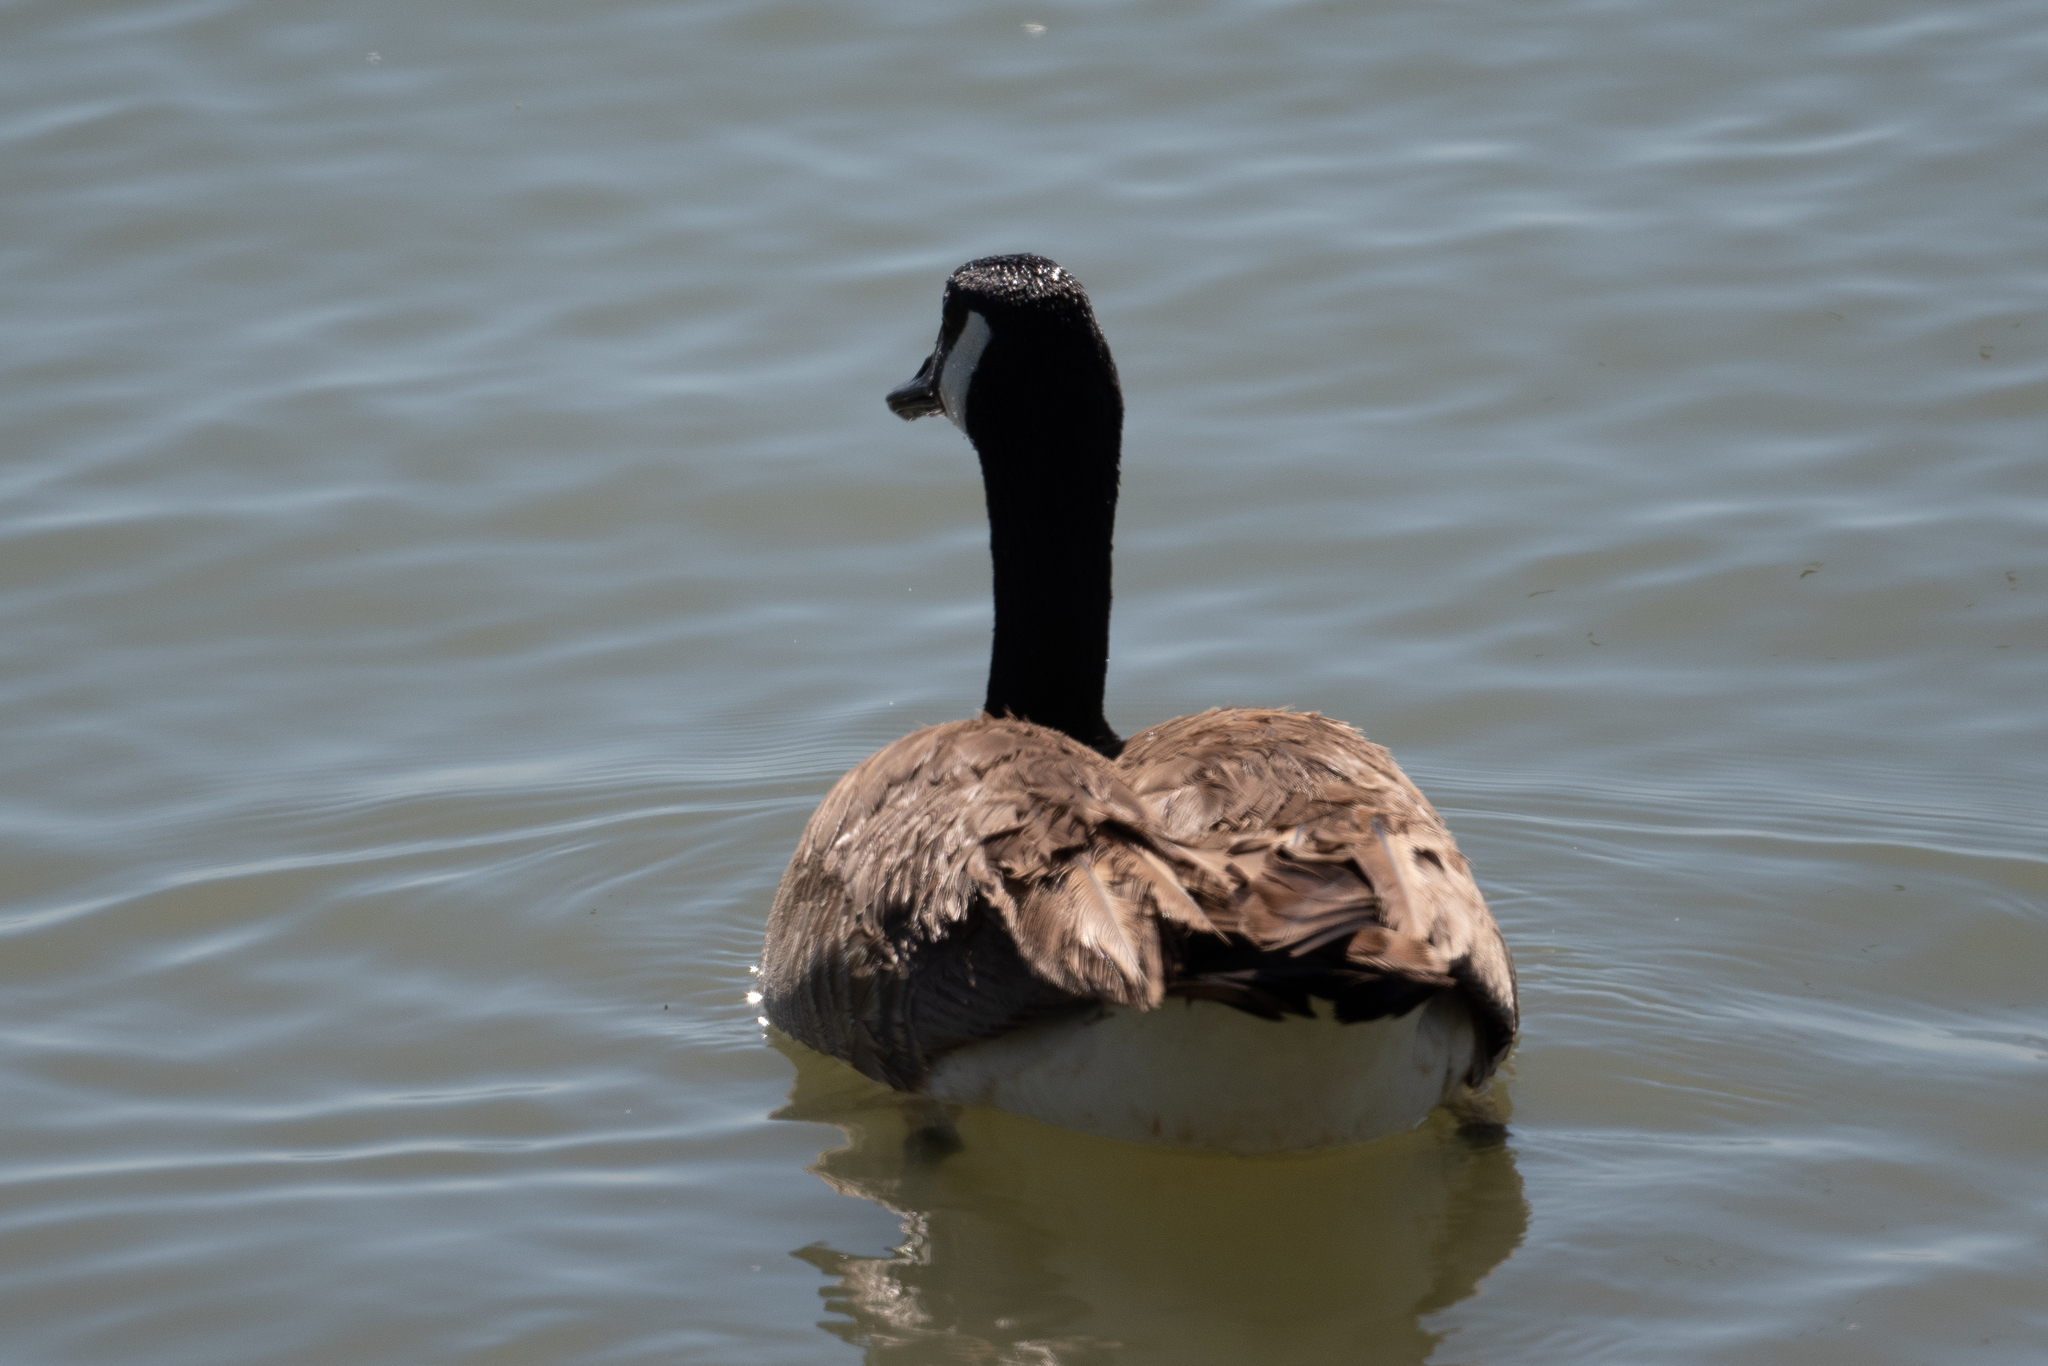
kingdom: Animalia
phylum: Chordata
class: Aves
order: Anseriformes
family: Anatidae
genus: Branta
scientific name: Branta canadensis
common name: Canada goose
